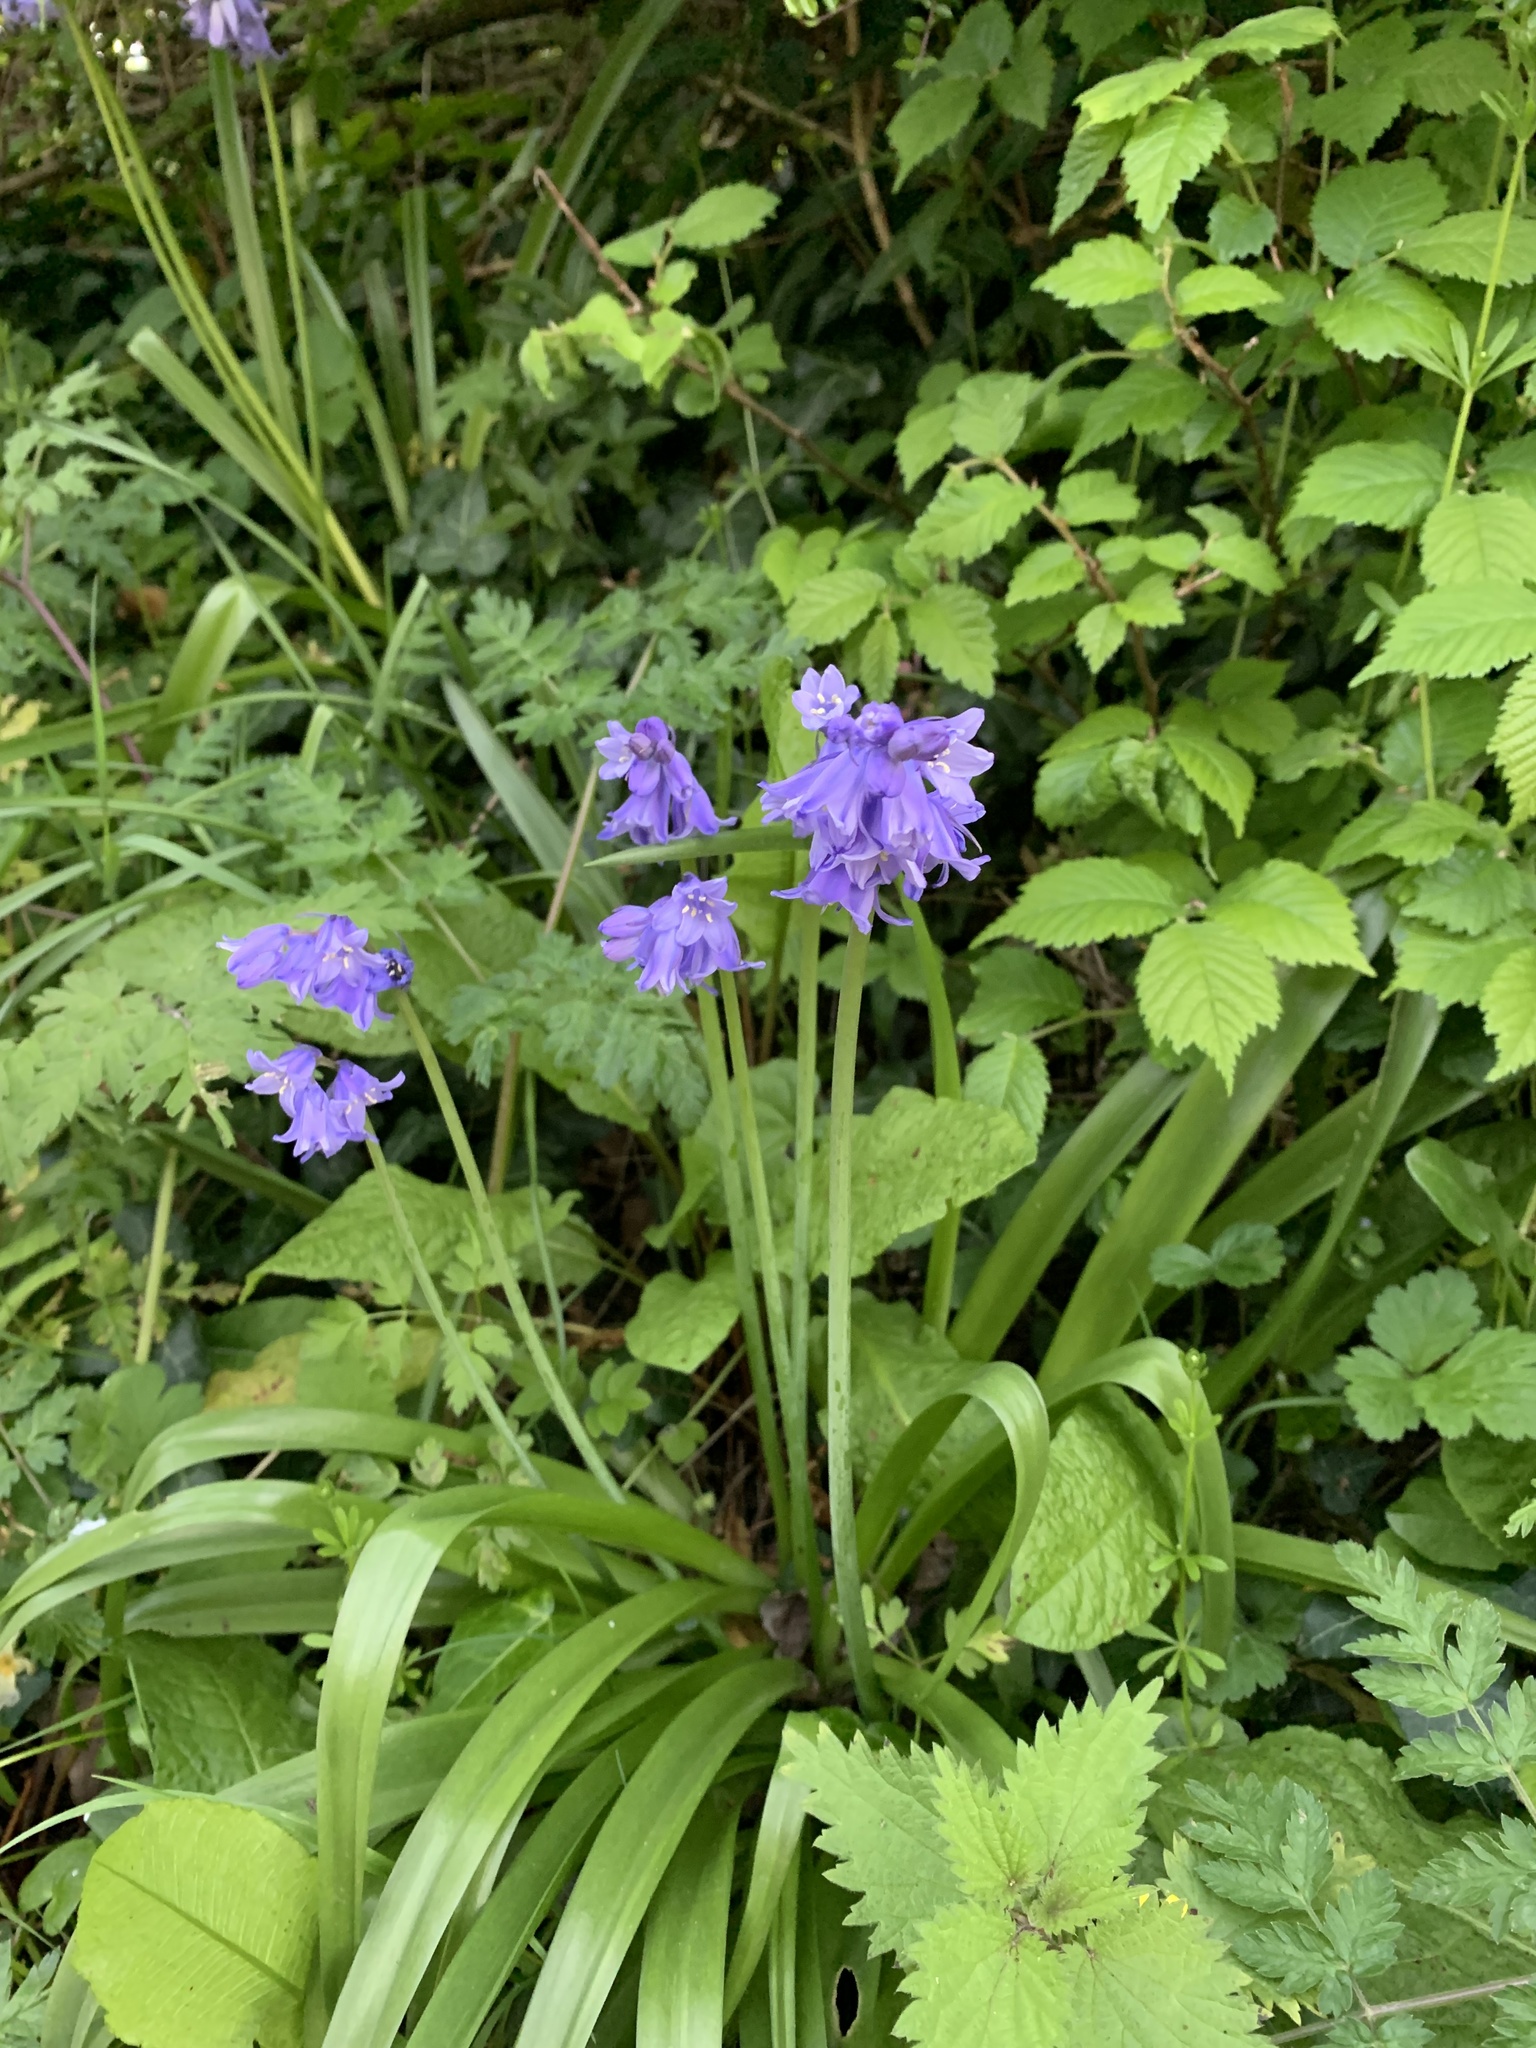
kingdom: Plantae
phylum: Tracheophyta
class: Liliopsida
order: Asparagales
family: Asparagaceae
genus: Hyacinthoides
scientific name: Hyacinthoides massartiana
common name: Hyacinthoides
